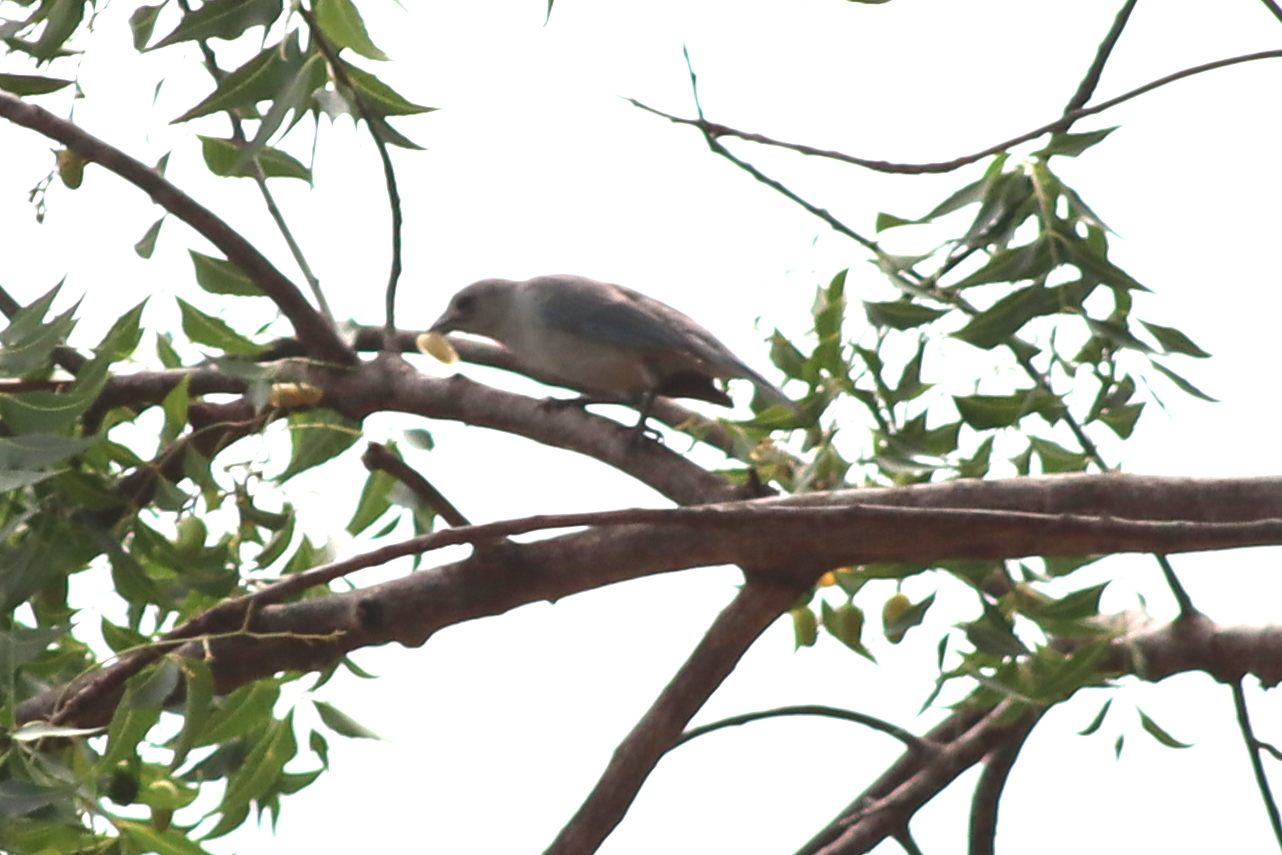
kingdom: Animalia
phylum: Chordata
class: Aves
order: Passeriformes
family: Thraupidae
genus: Thraupis
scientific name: Thraupis sayaca
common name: Sayaca tanager
